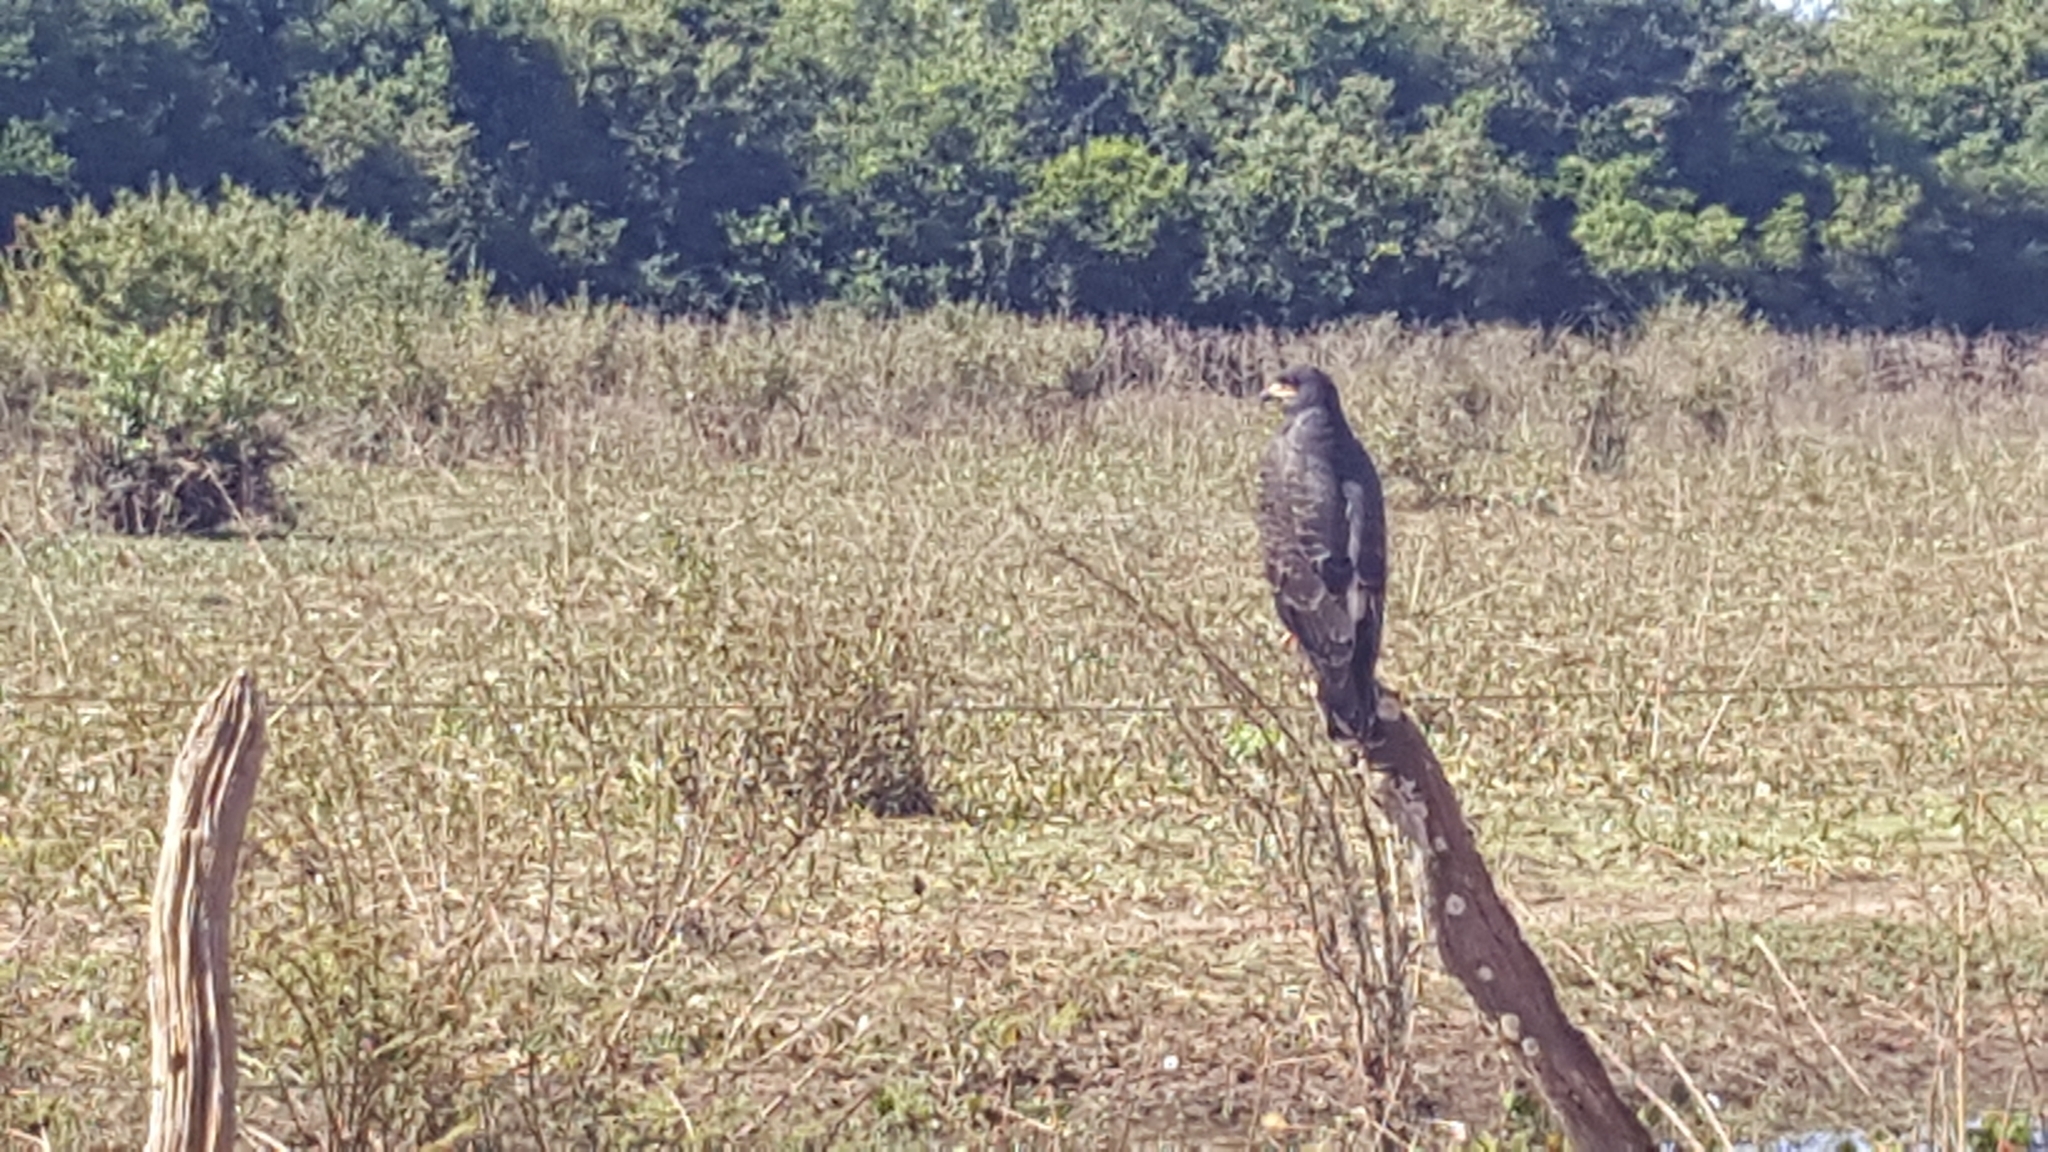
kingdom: Animalia
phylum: Chordata
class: Aves
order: Accipitriformes
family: Accipitridae
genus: Rostrhamus
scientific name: Rostrhamus sociabilis
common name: Snail kite
